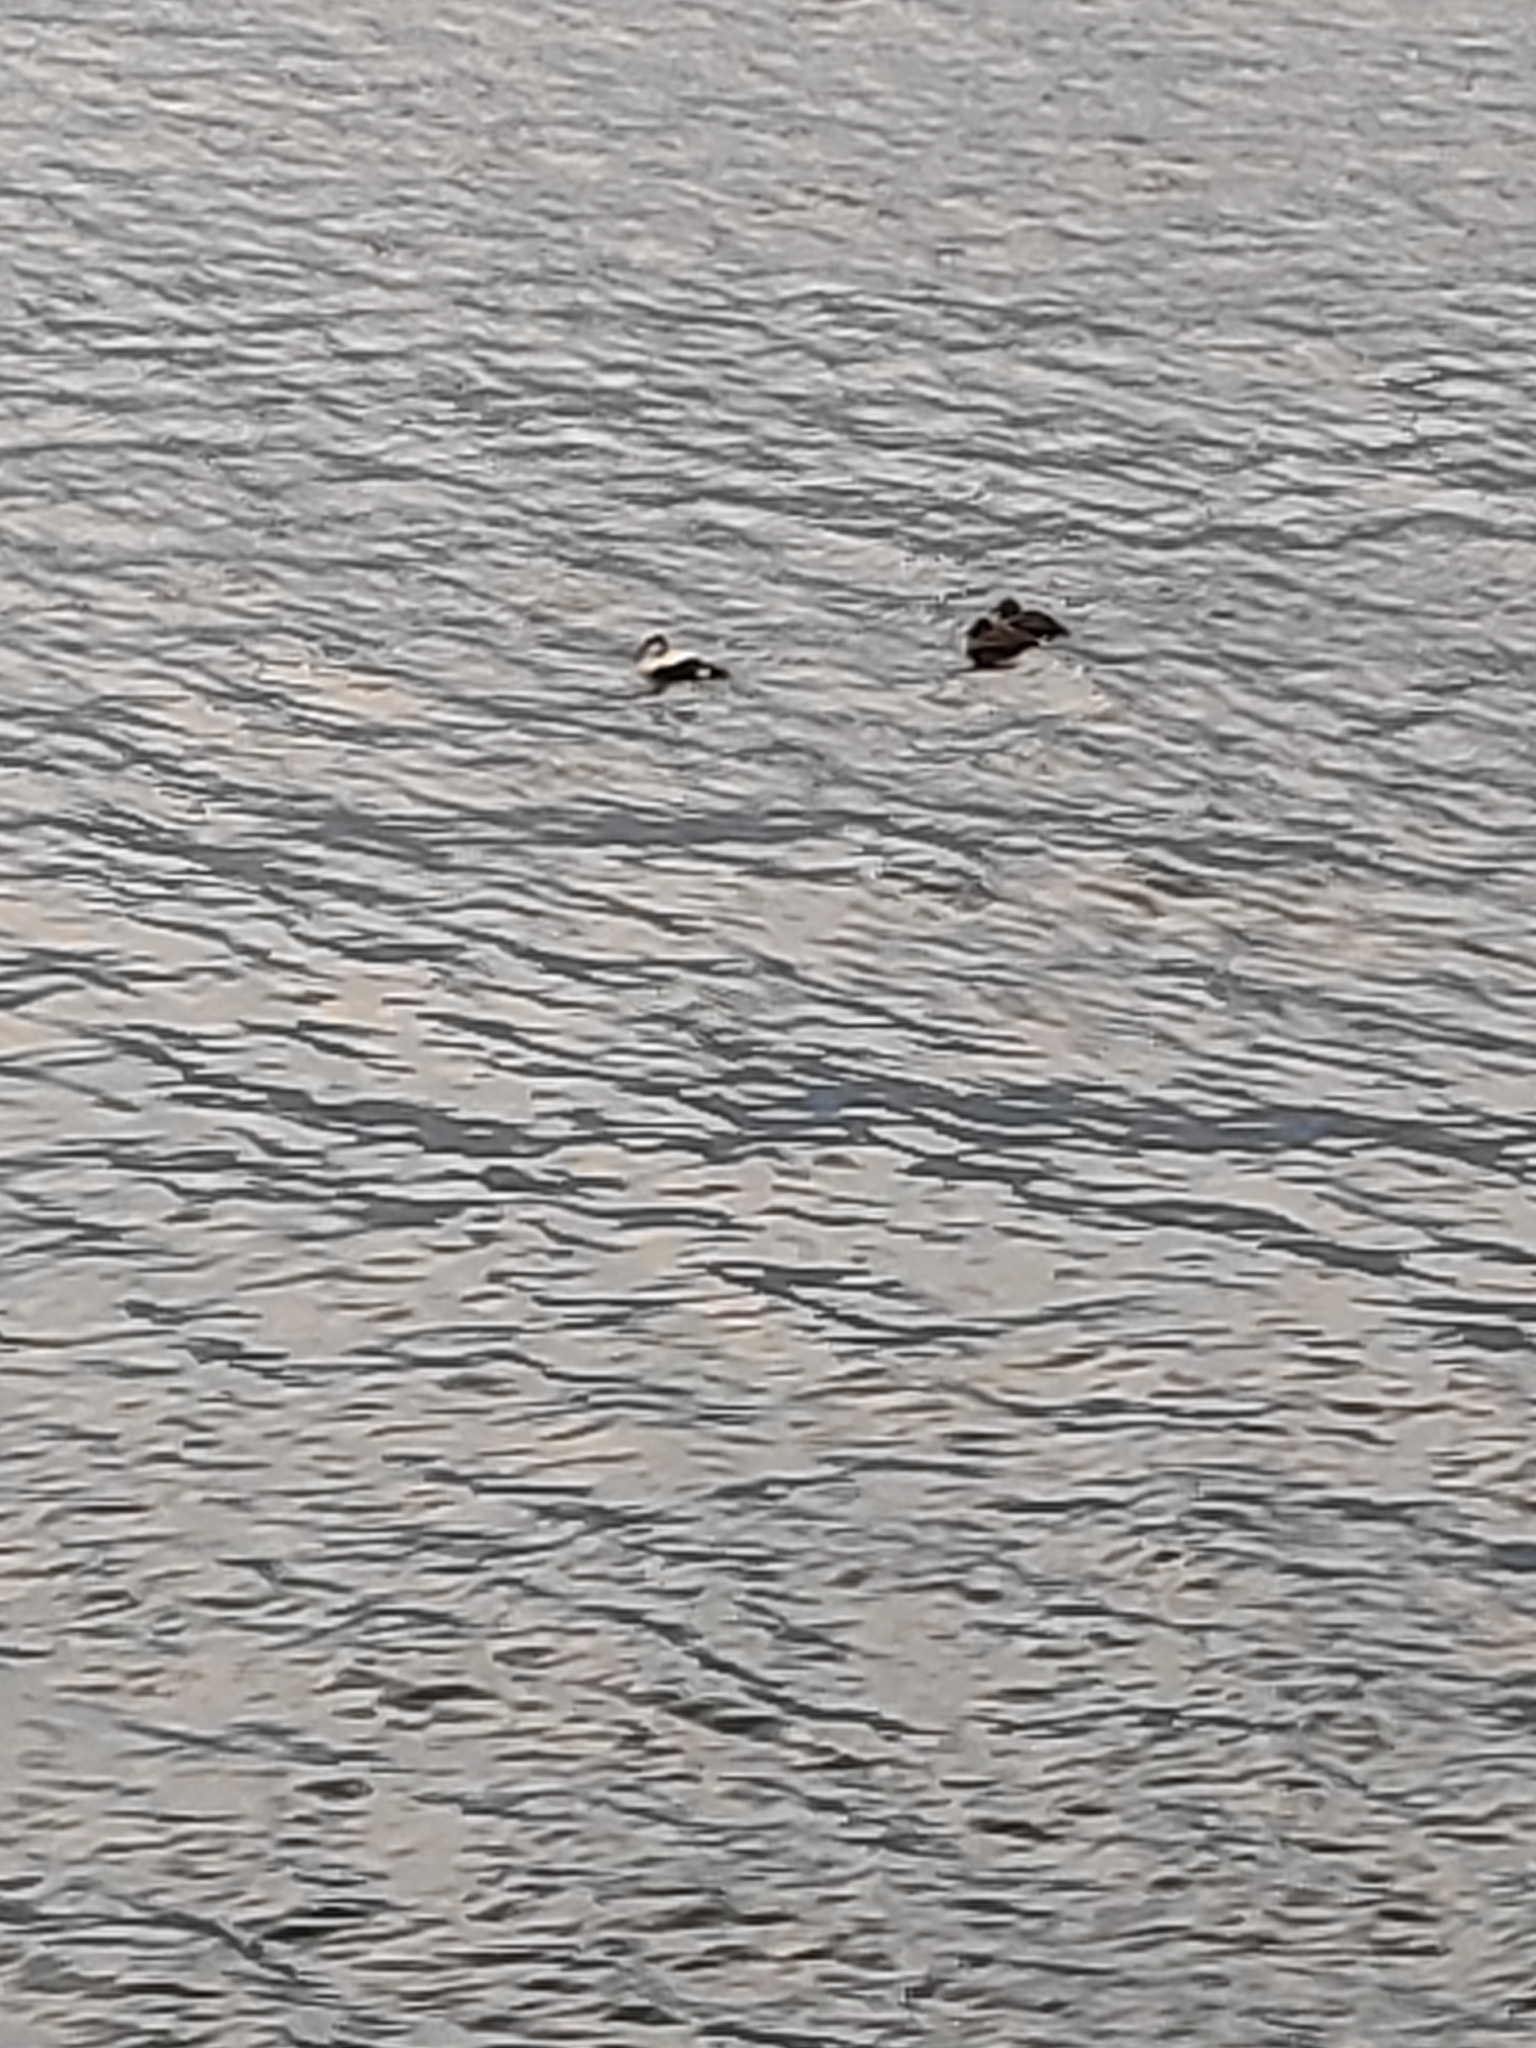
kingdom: Animalia
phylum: Chordata
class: Aves
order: Anseriformes
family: Anatidae
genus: Somateria
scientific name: Somateria mollissima
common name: Common eider
